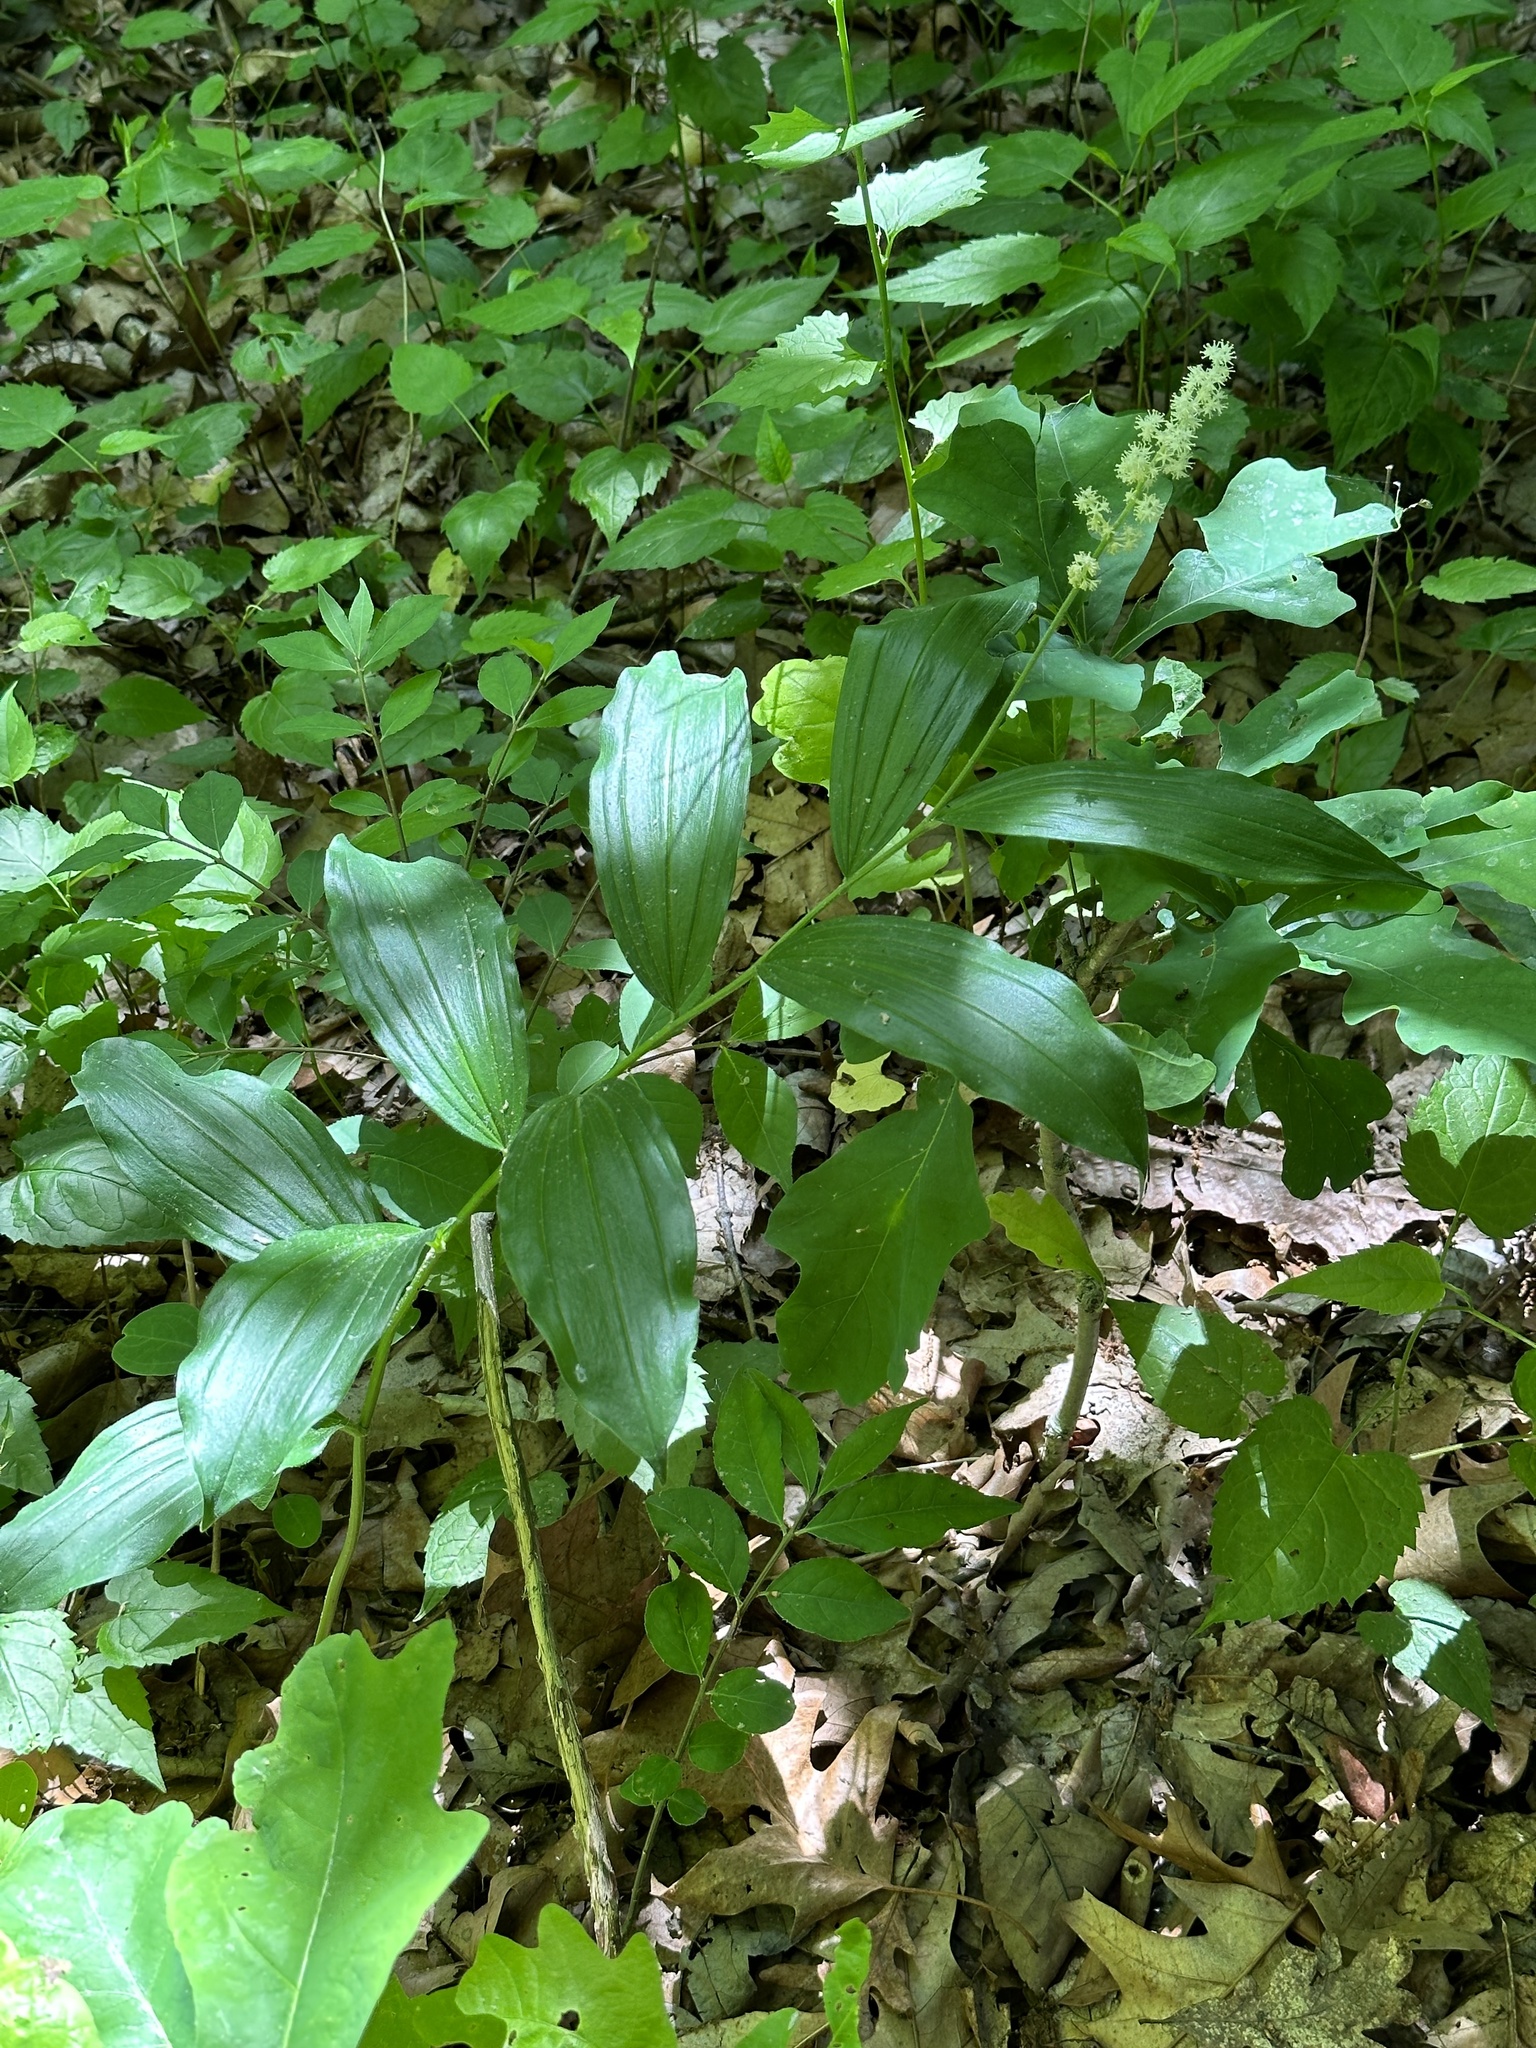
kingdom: Plantae
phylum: Tracheophyta
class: Liliopsida
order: Asparagales
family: Asparagaceae
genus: Maianthemum
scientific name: Maianthemum racemosum
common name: False spikenard
